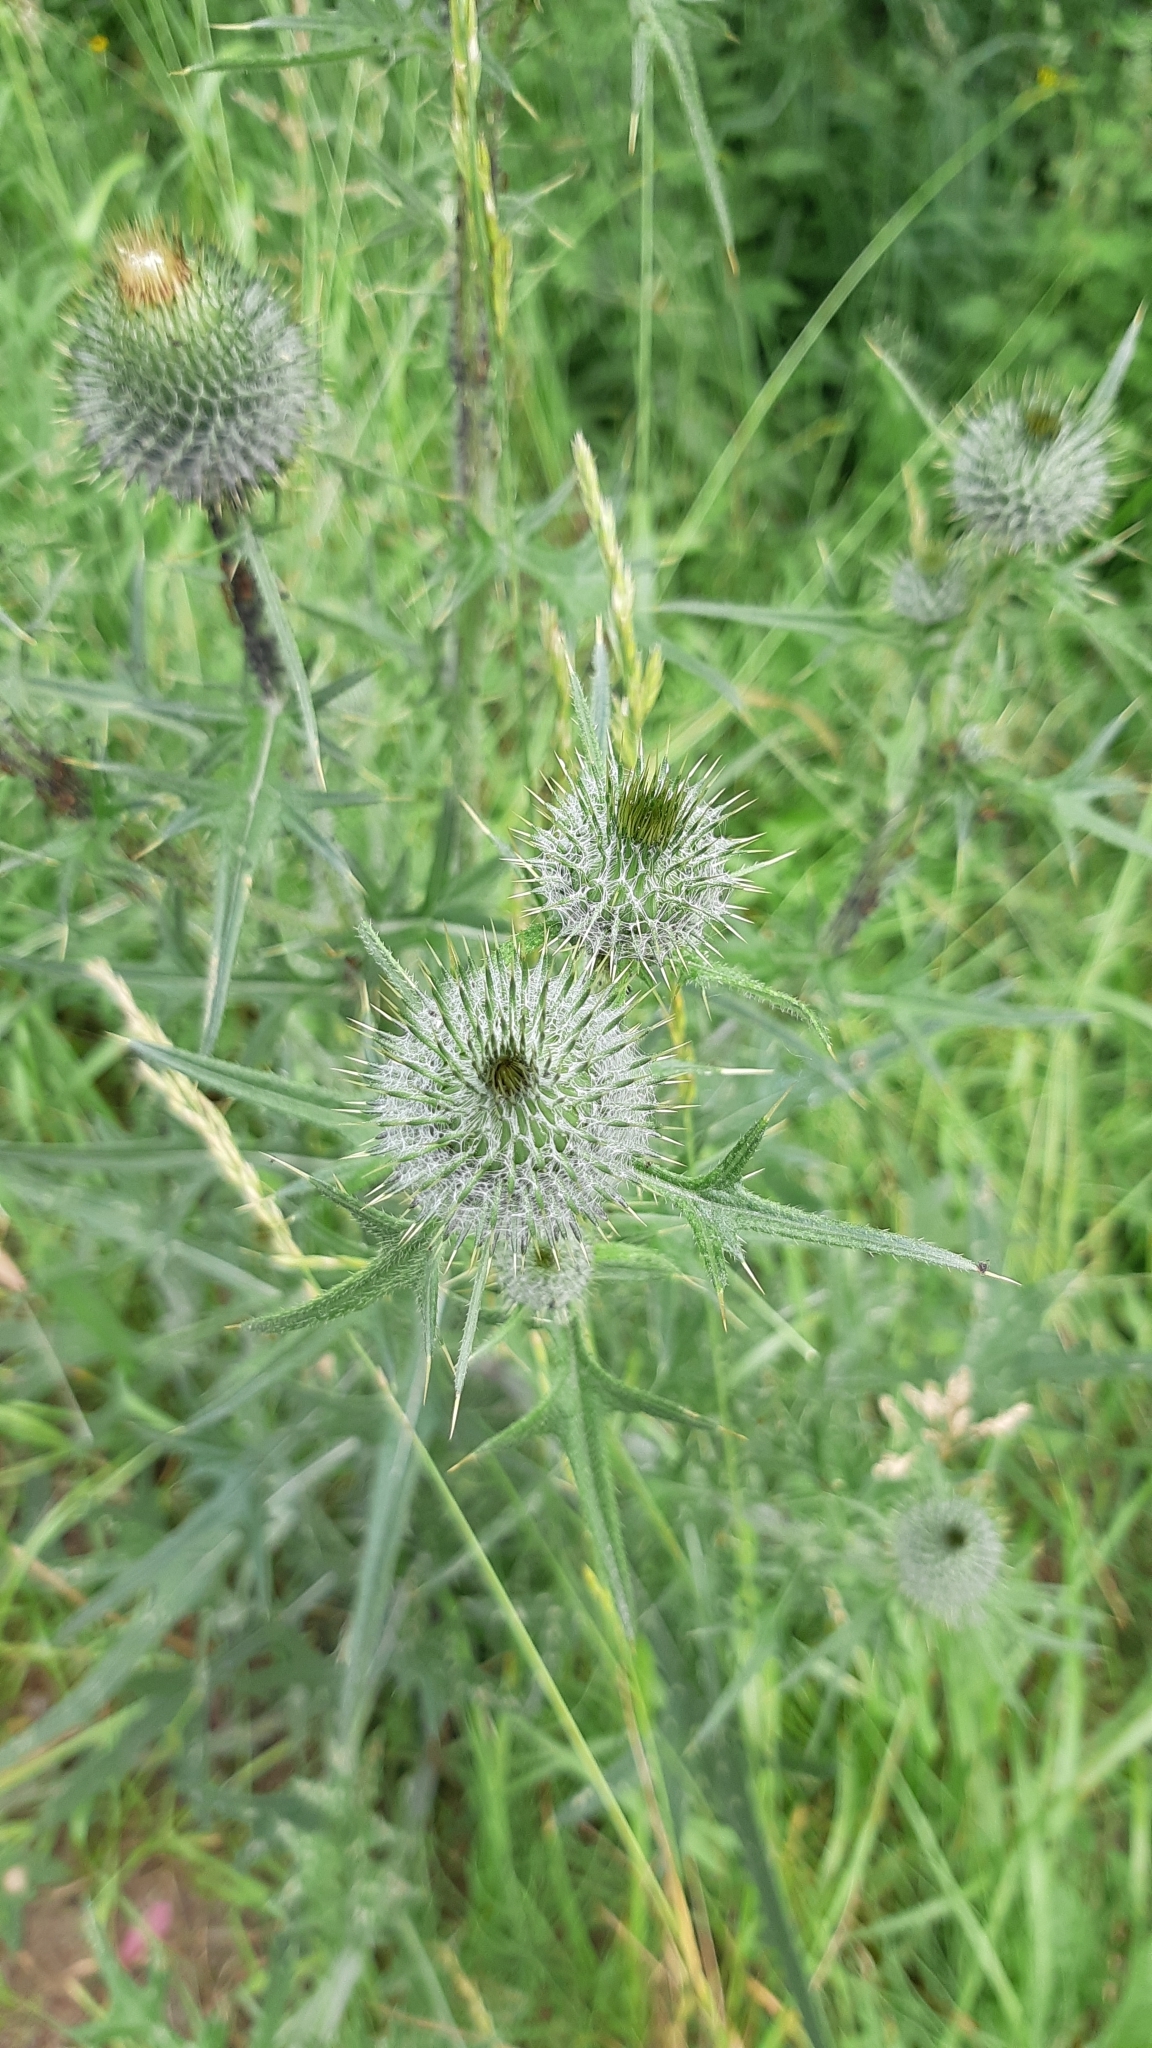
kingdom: Plantae
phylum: Tracheophyta
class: Magnoliopsida
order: Asterales
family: Asteraceae
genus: Cirsium
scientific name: Cirsium vulgare
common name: Bull thistle
